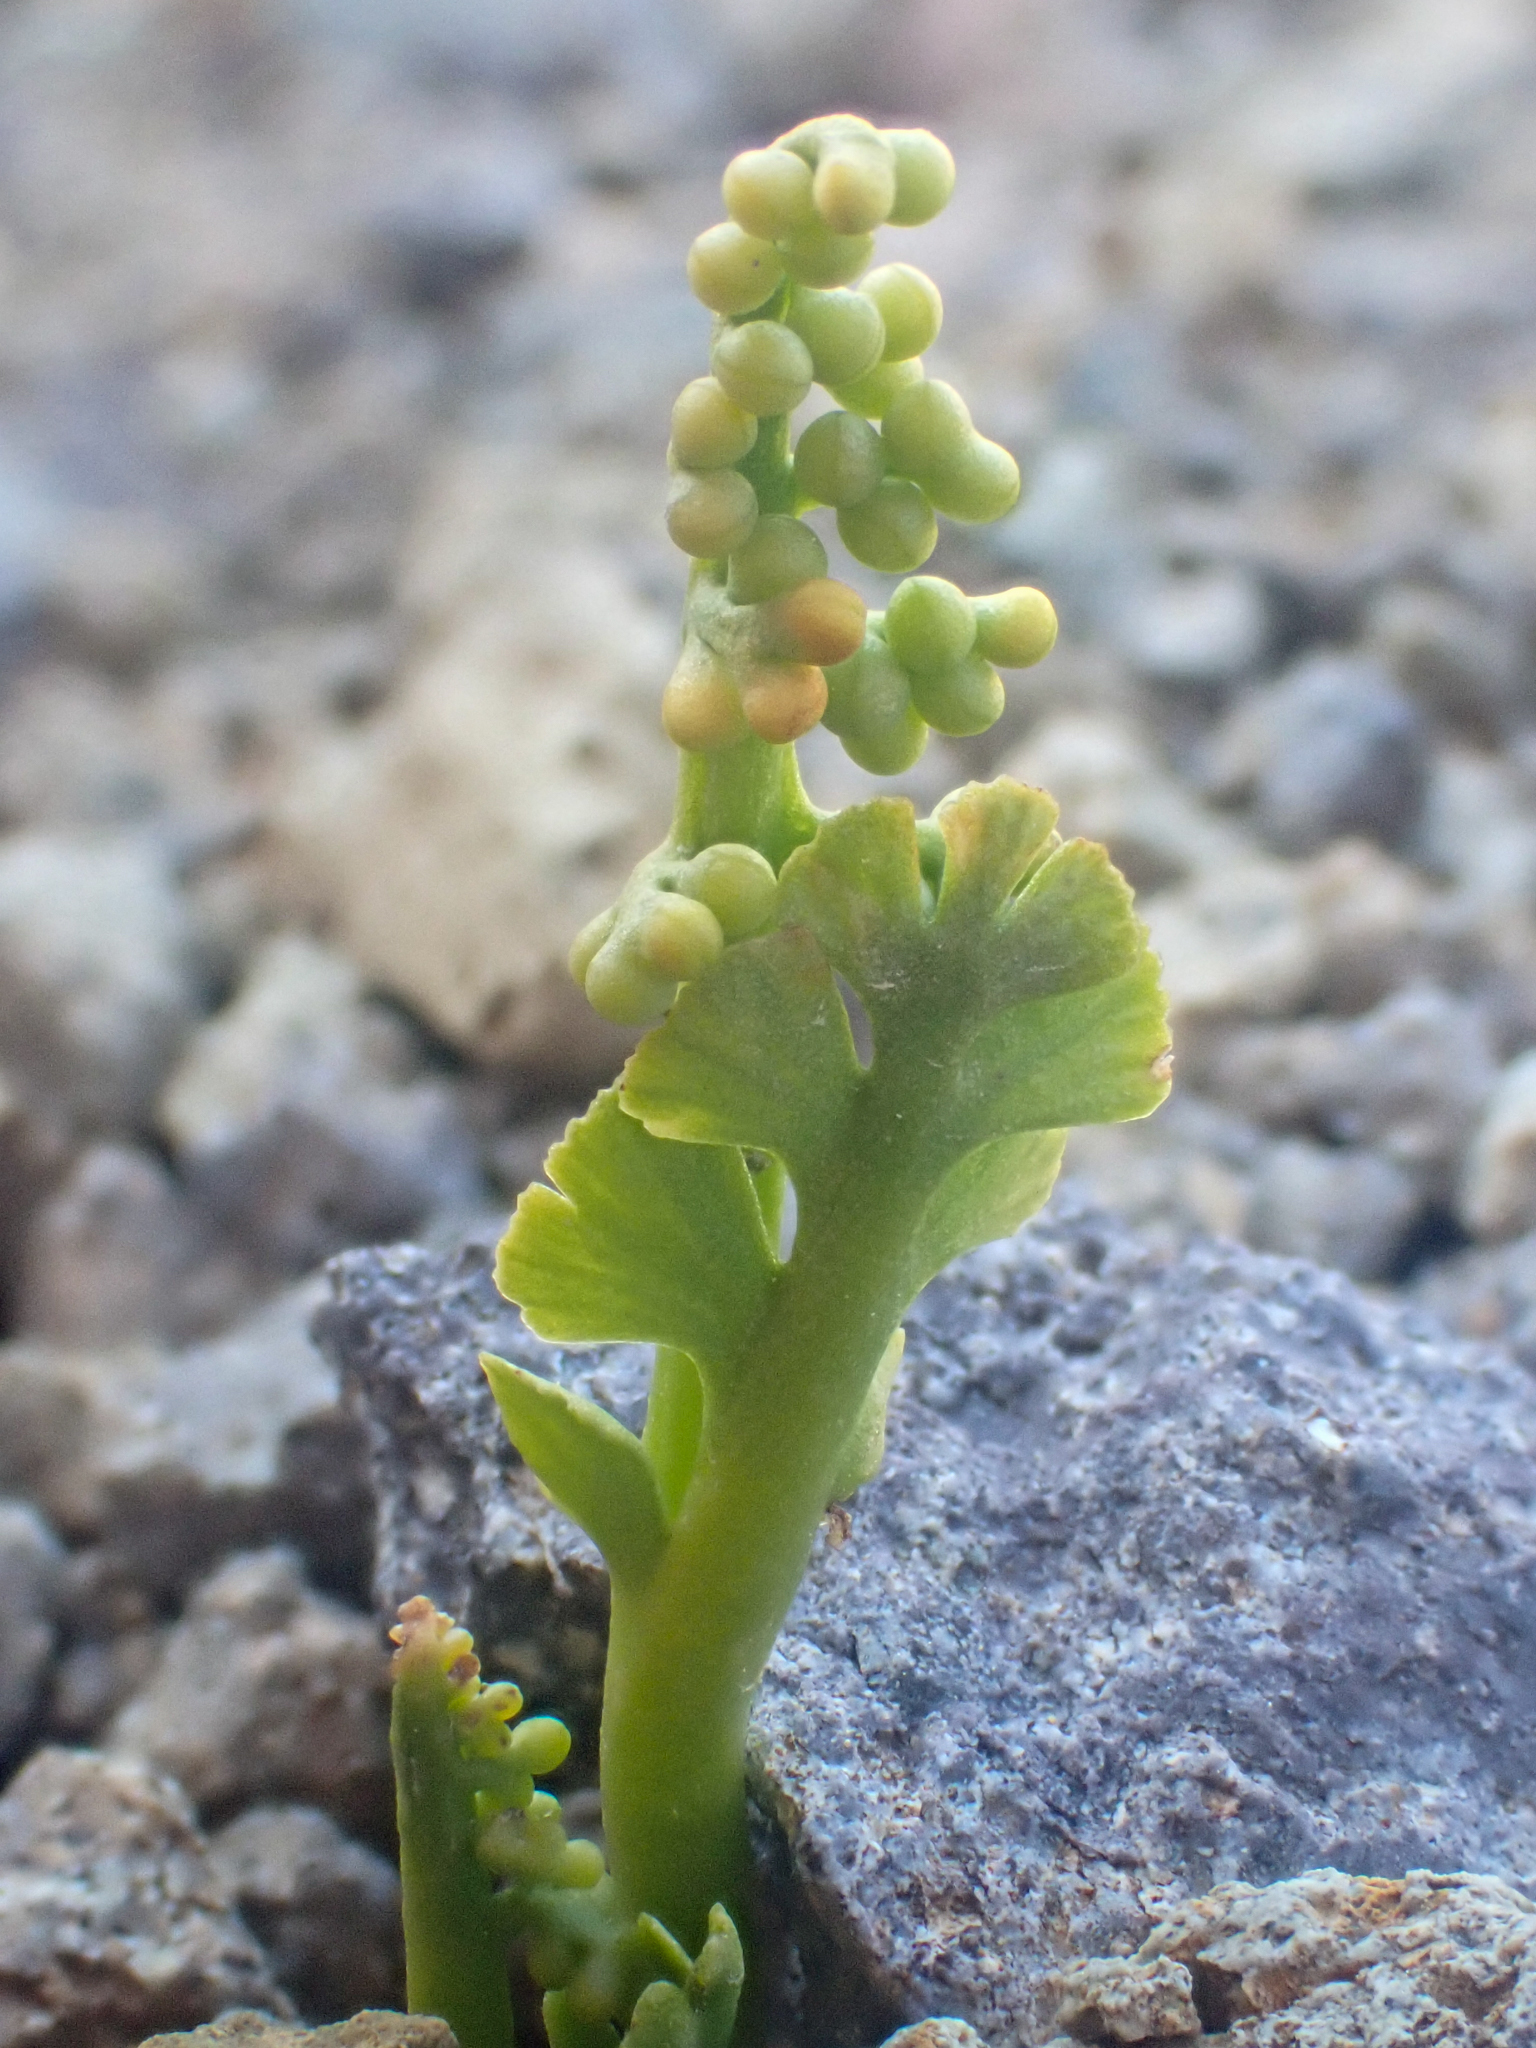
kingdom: Plantae
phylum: Tracheophyta
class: Polypodiopsida
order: Ophioglossales
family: Ophioglossaceae
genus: Botrychium
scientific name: Botrychium neolunaria
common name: New world moonwort
